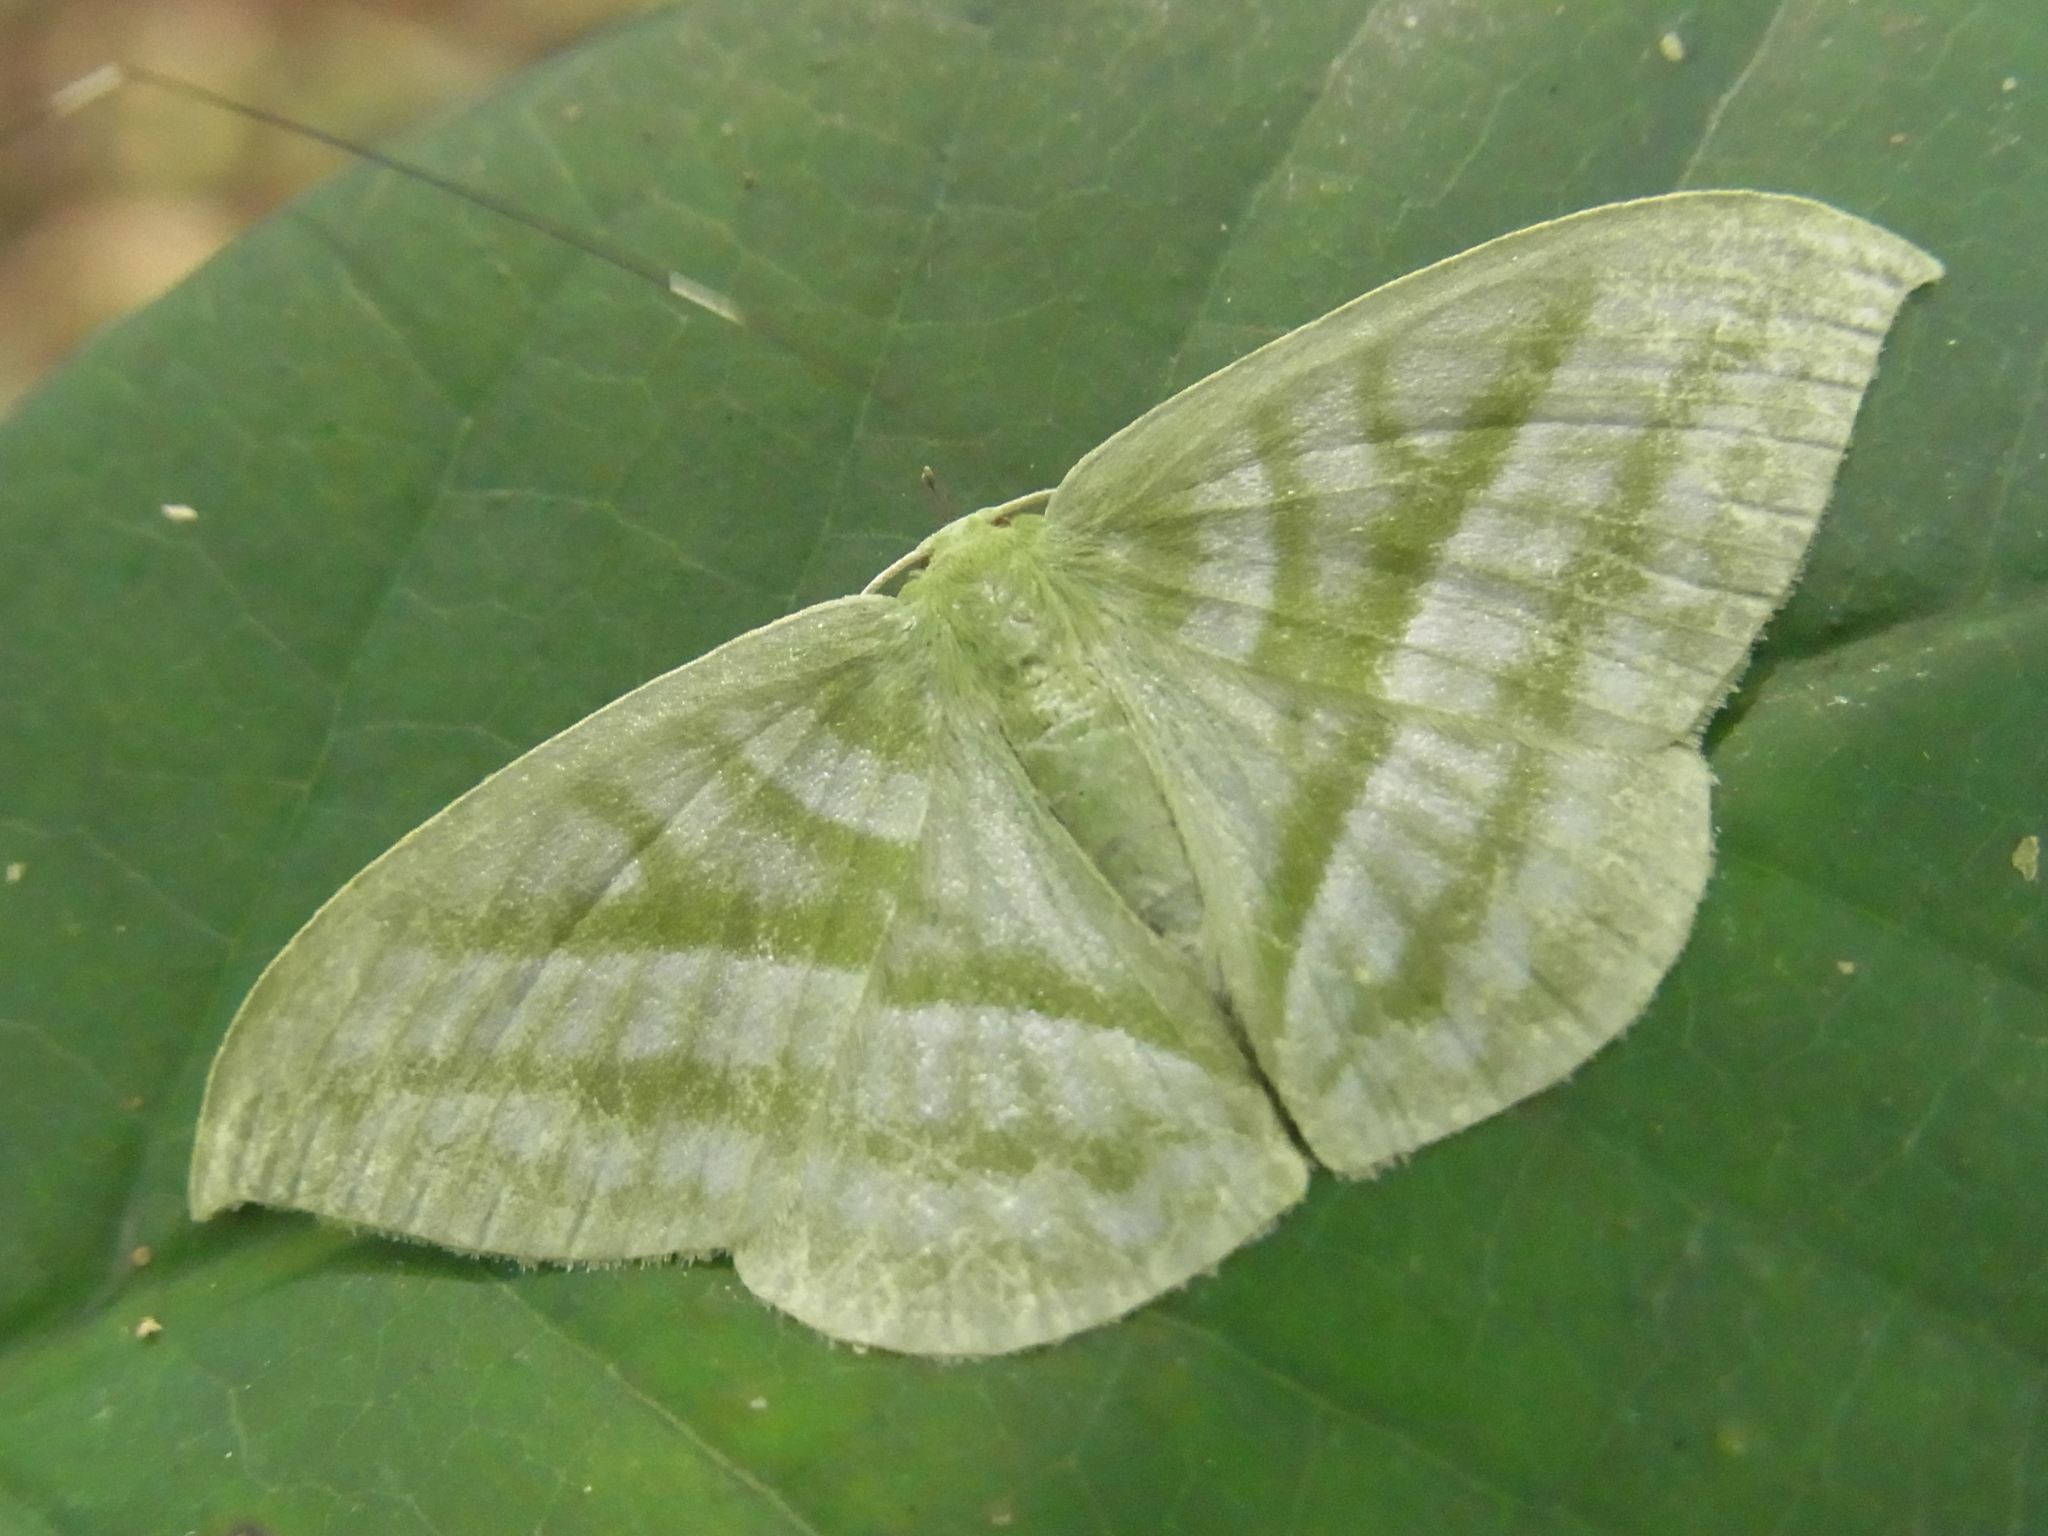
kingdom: Animalia
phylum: Arthropoda
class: Insecta
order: Lepidoptera
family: Geometridae
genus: Mixochlora
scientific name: Mixochlora vittata
